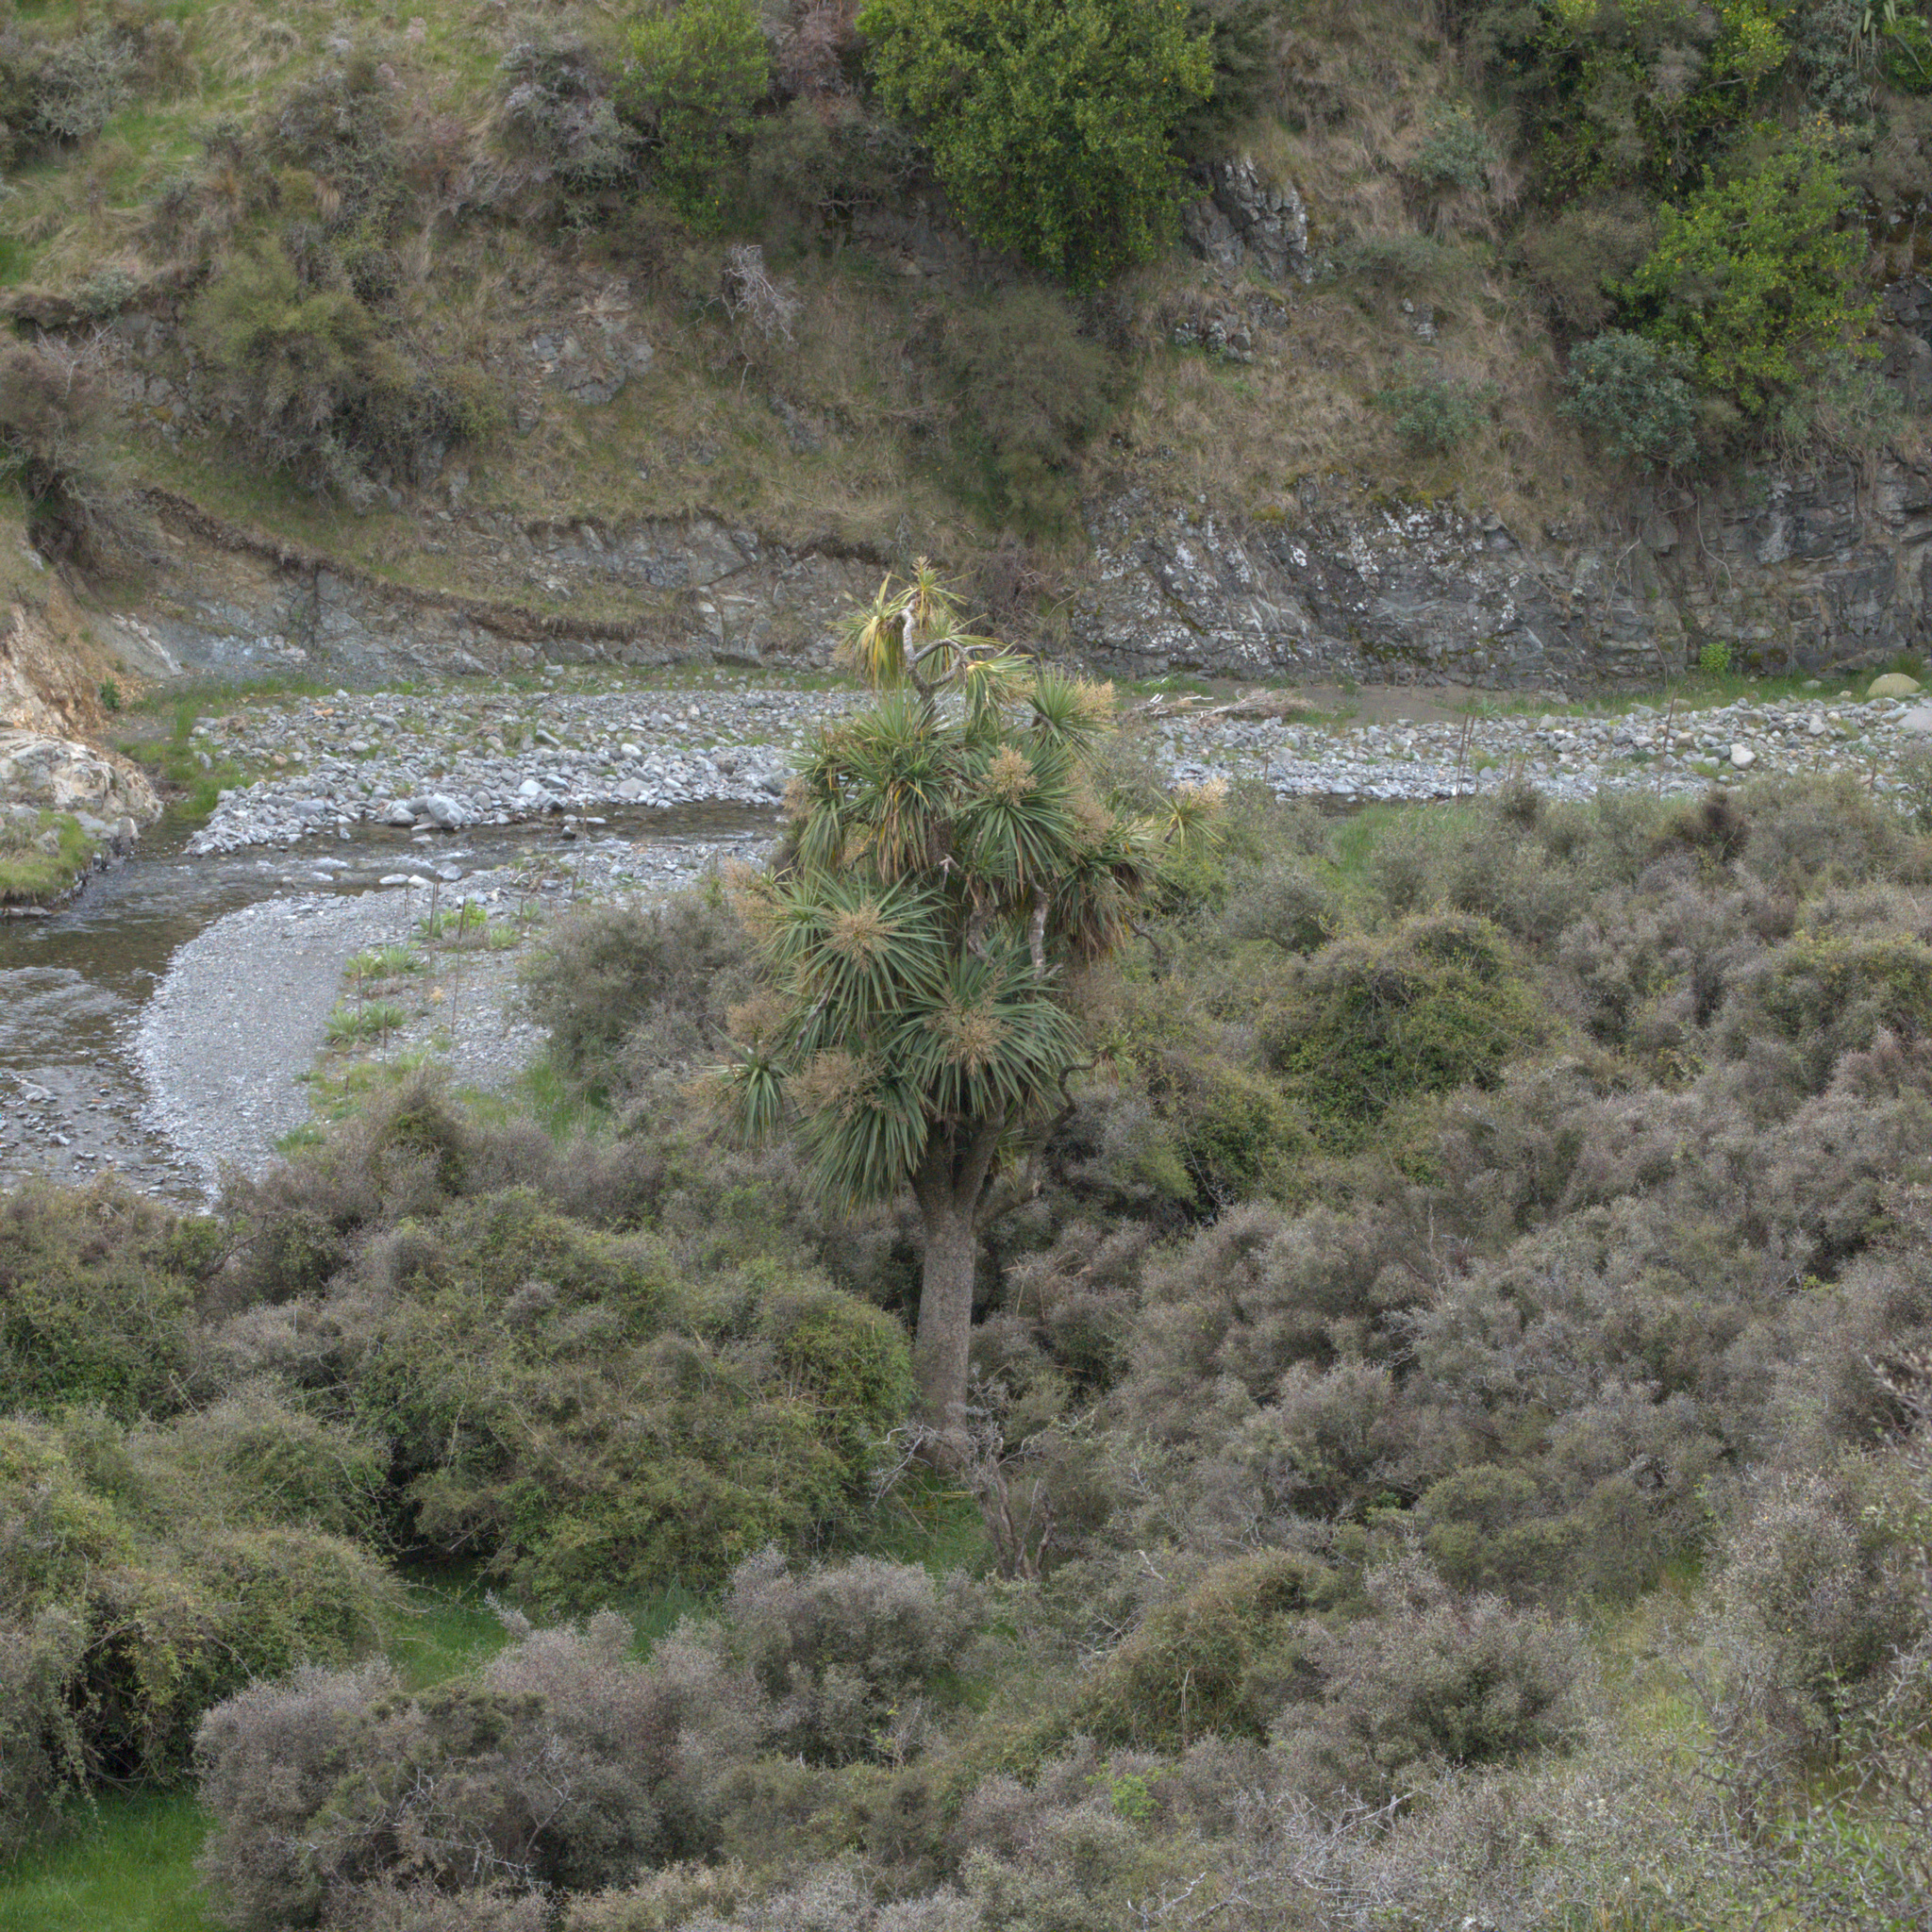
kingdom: Plantae
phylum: Tracheophyta
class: Liliopsida
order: Asparagales
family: Asparagaceae
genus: Cordyline
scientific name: Cordyline australis
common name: Cabbage-palm
